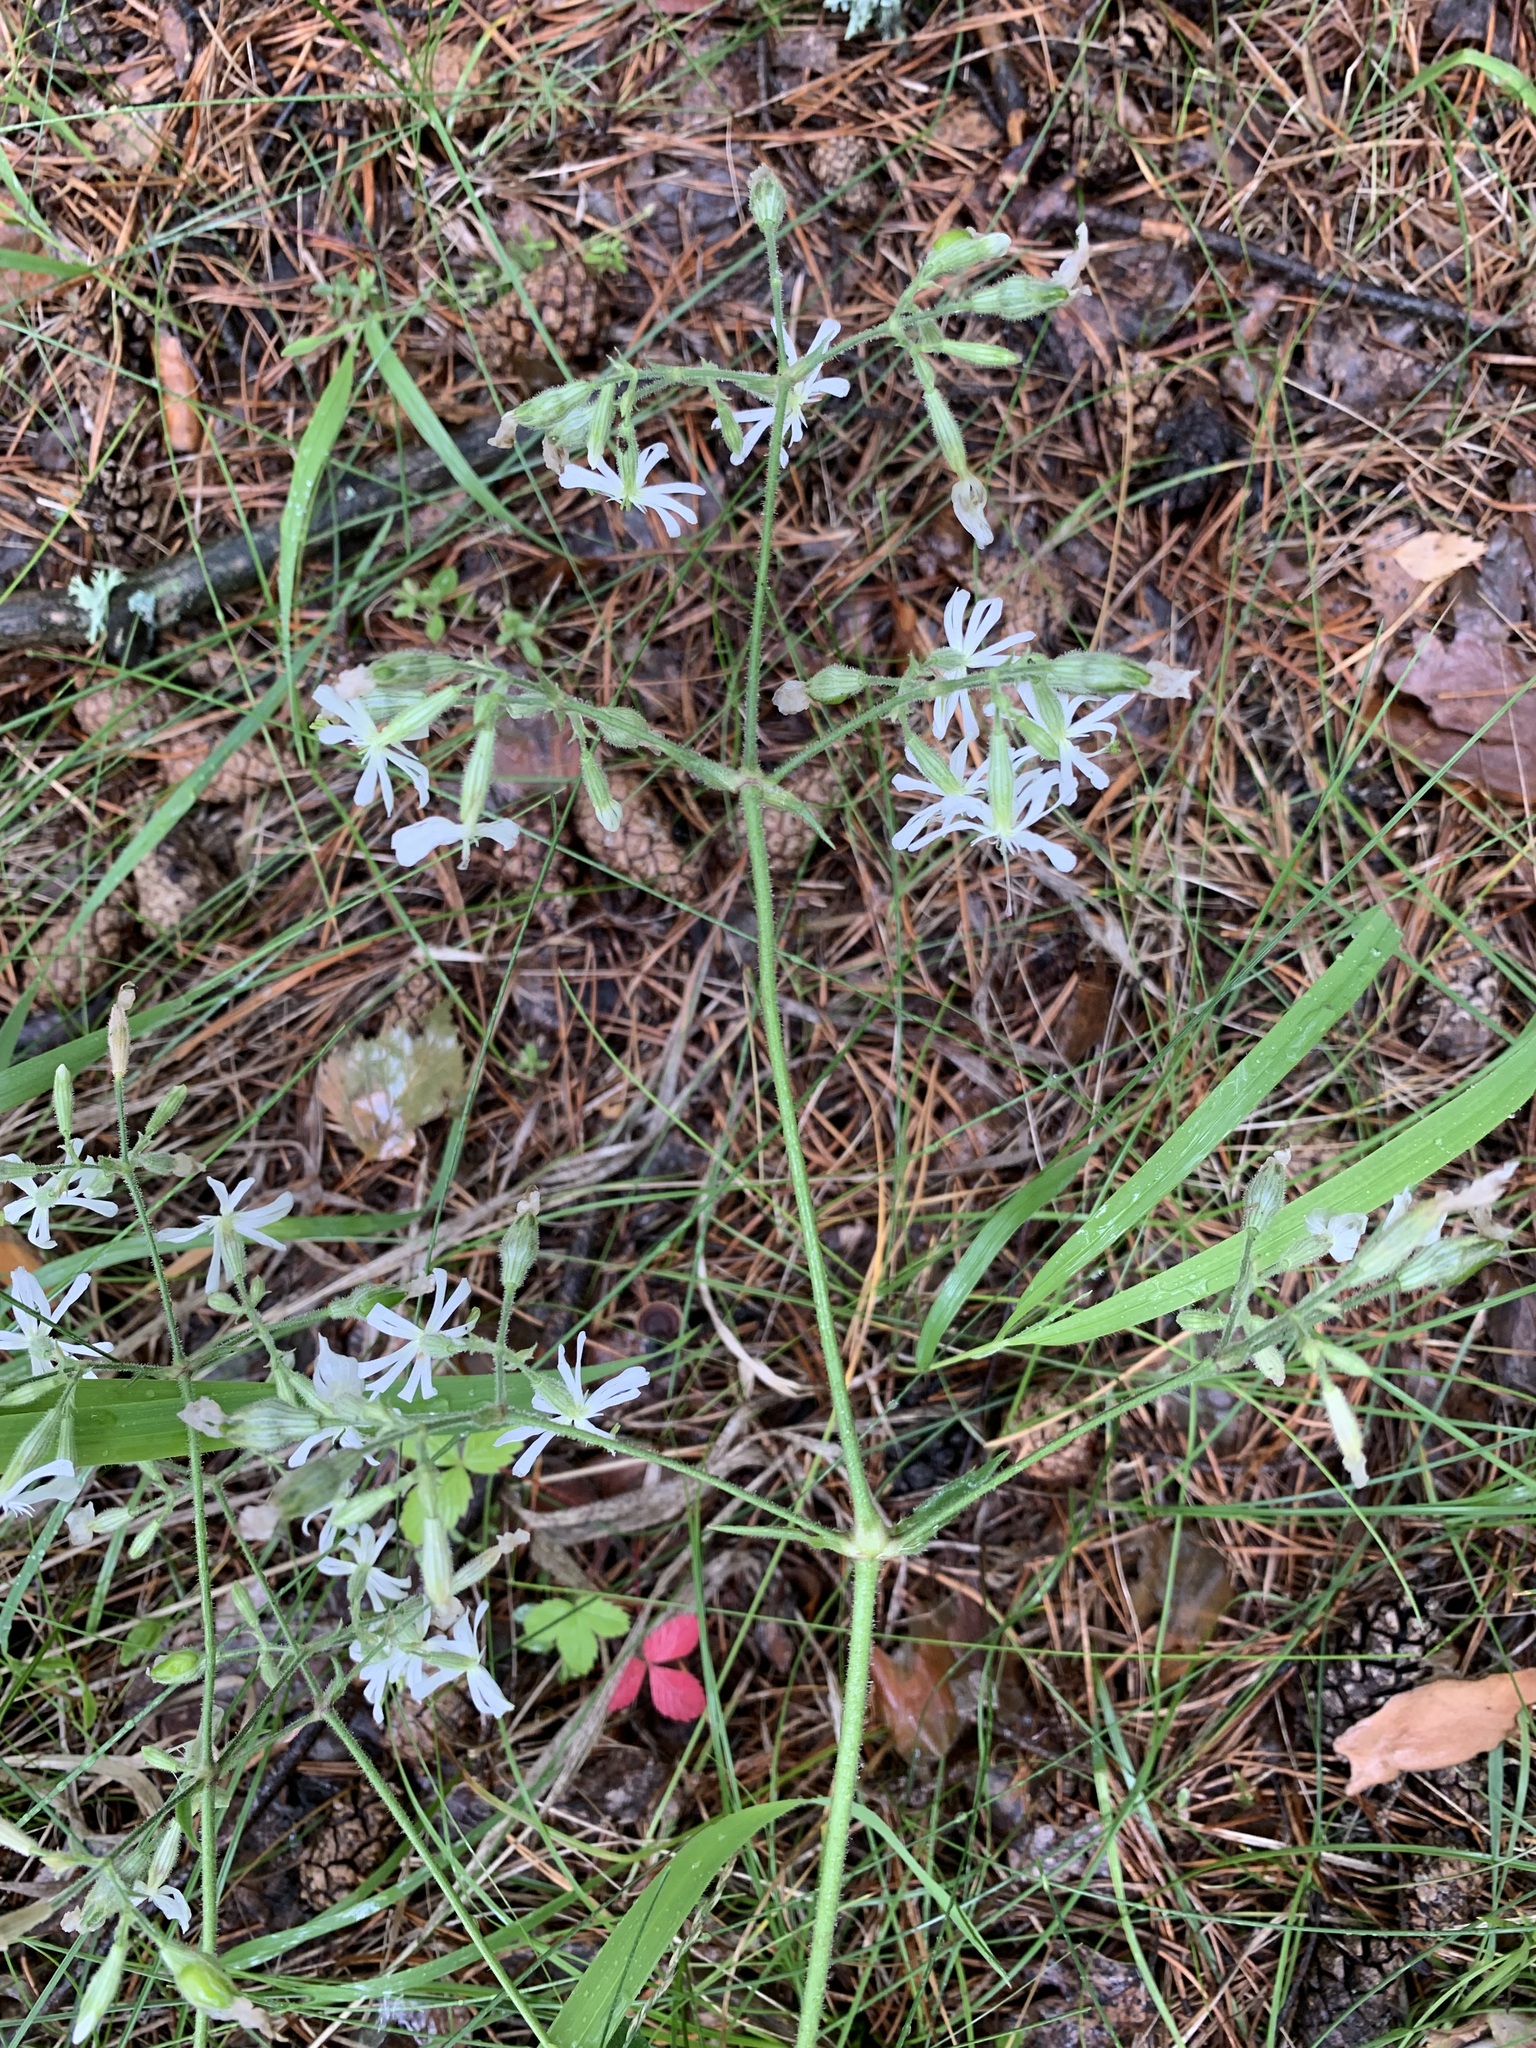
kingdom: Plantae
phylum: Tracheophyta
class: Magnoliopsida
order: Caryophyllales
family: Caryophyllaceae
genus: Silene
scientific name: Silene nutans
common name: Nottingham catchfly
